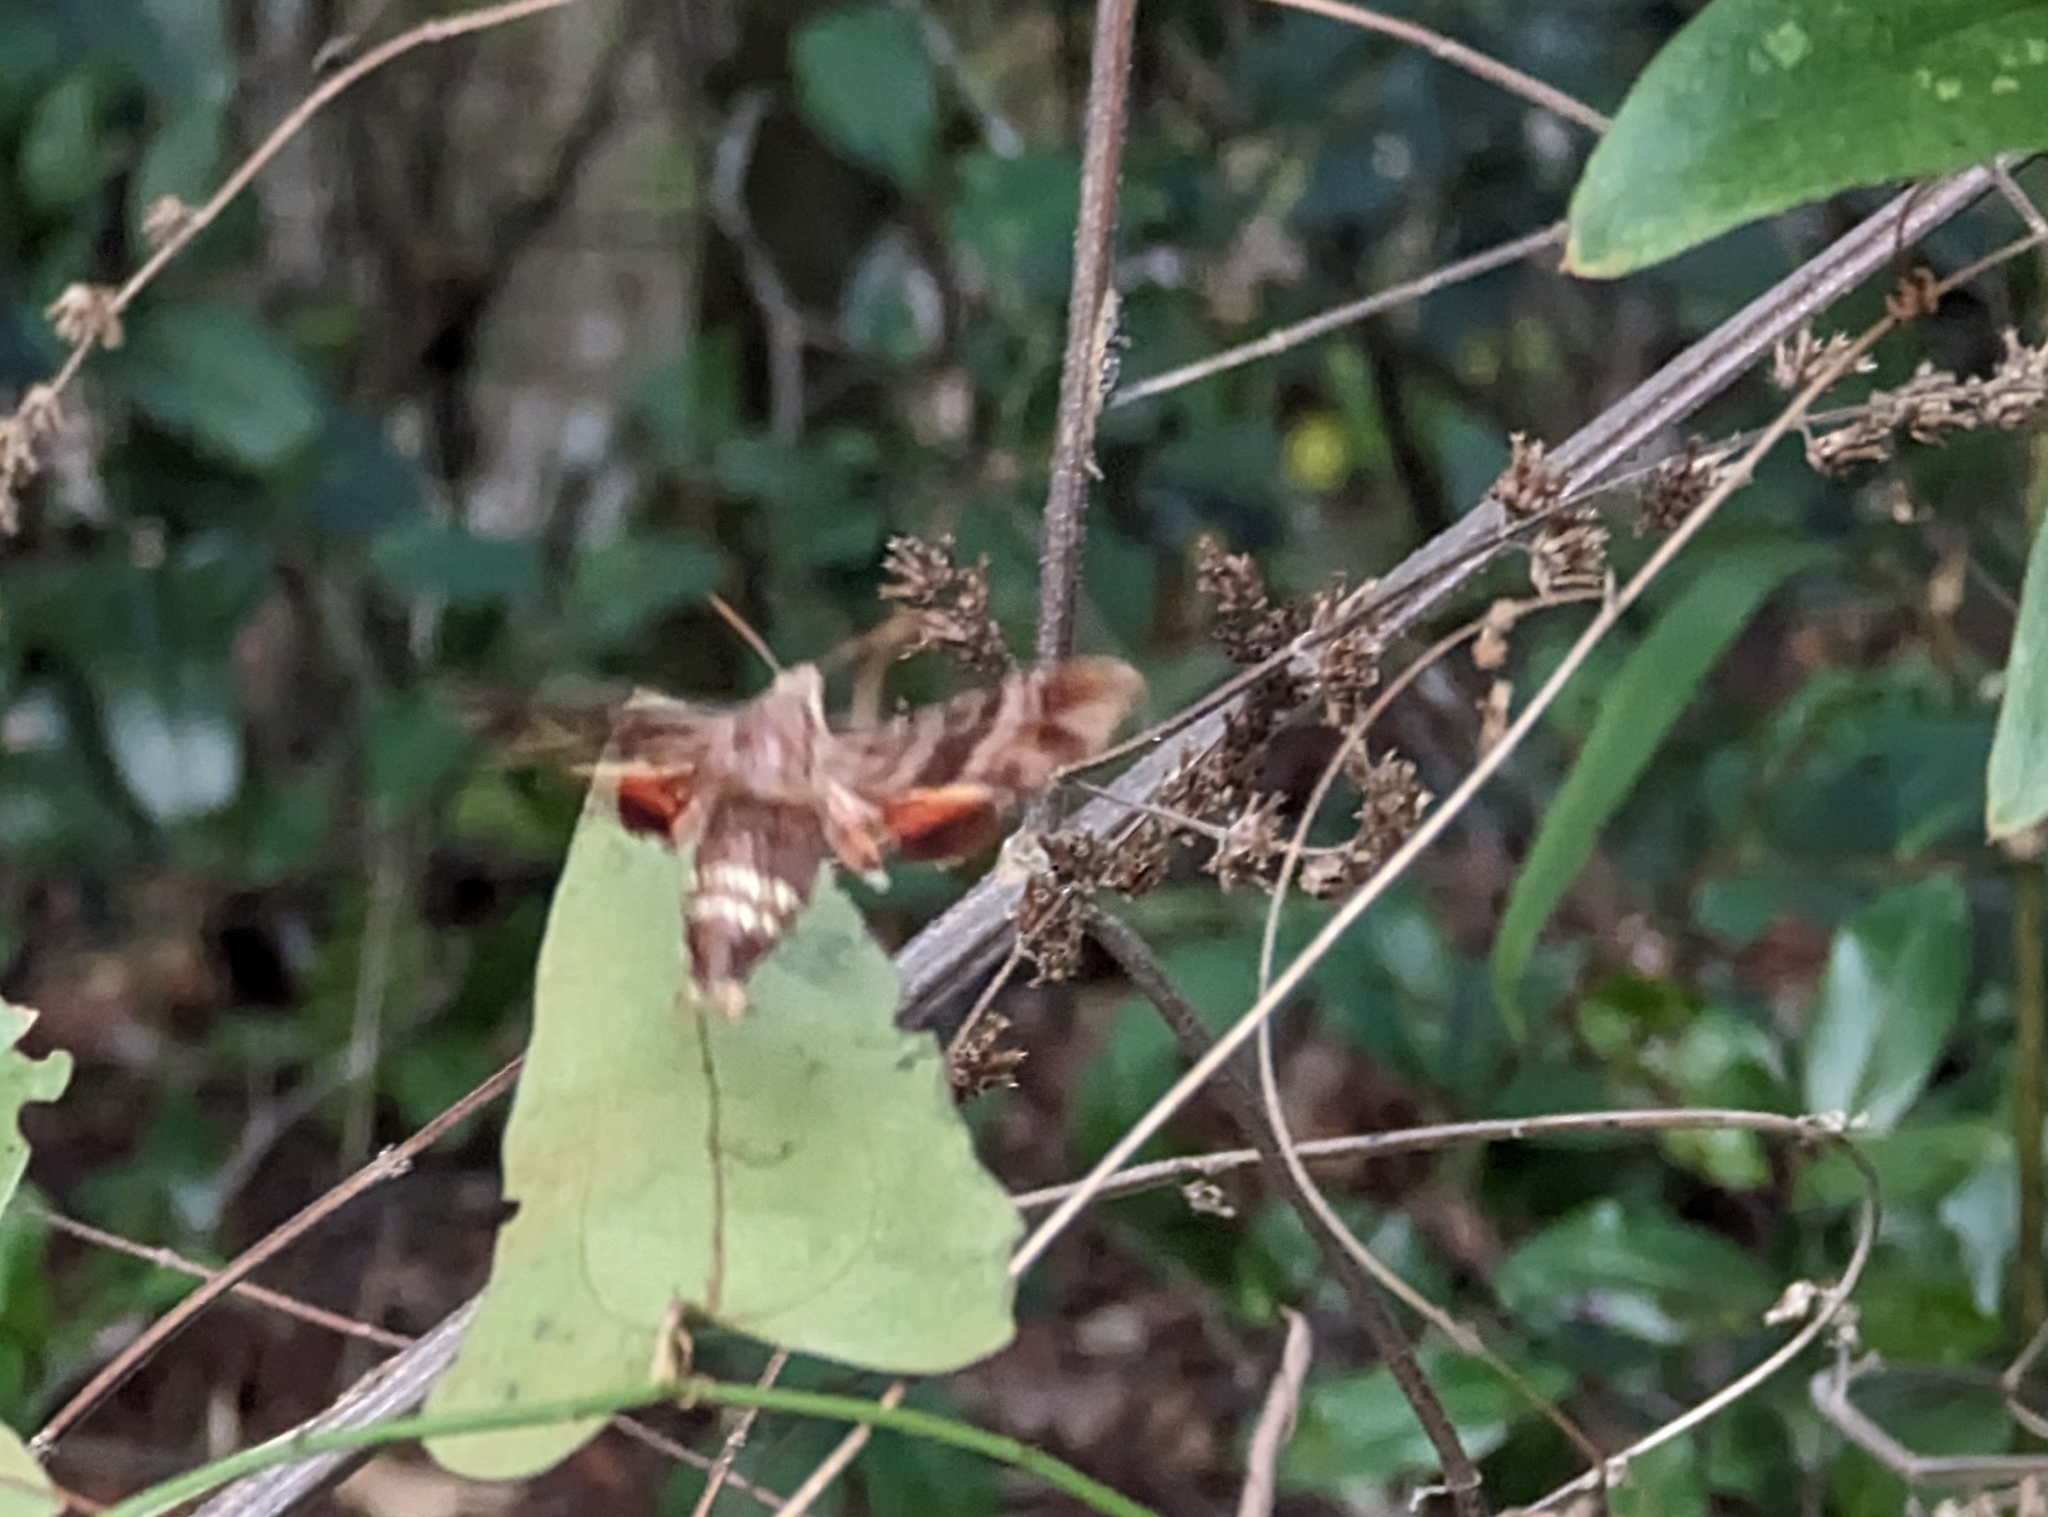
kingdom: Animalia
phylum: Arthropoda
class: Insecta
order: Lepidoptera
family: Sphingidae
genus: Amphion
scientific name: Amphion floridensis
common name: Nessus sphinx
